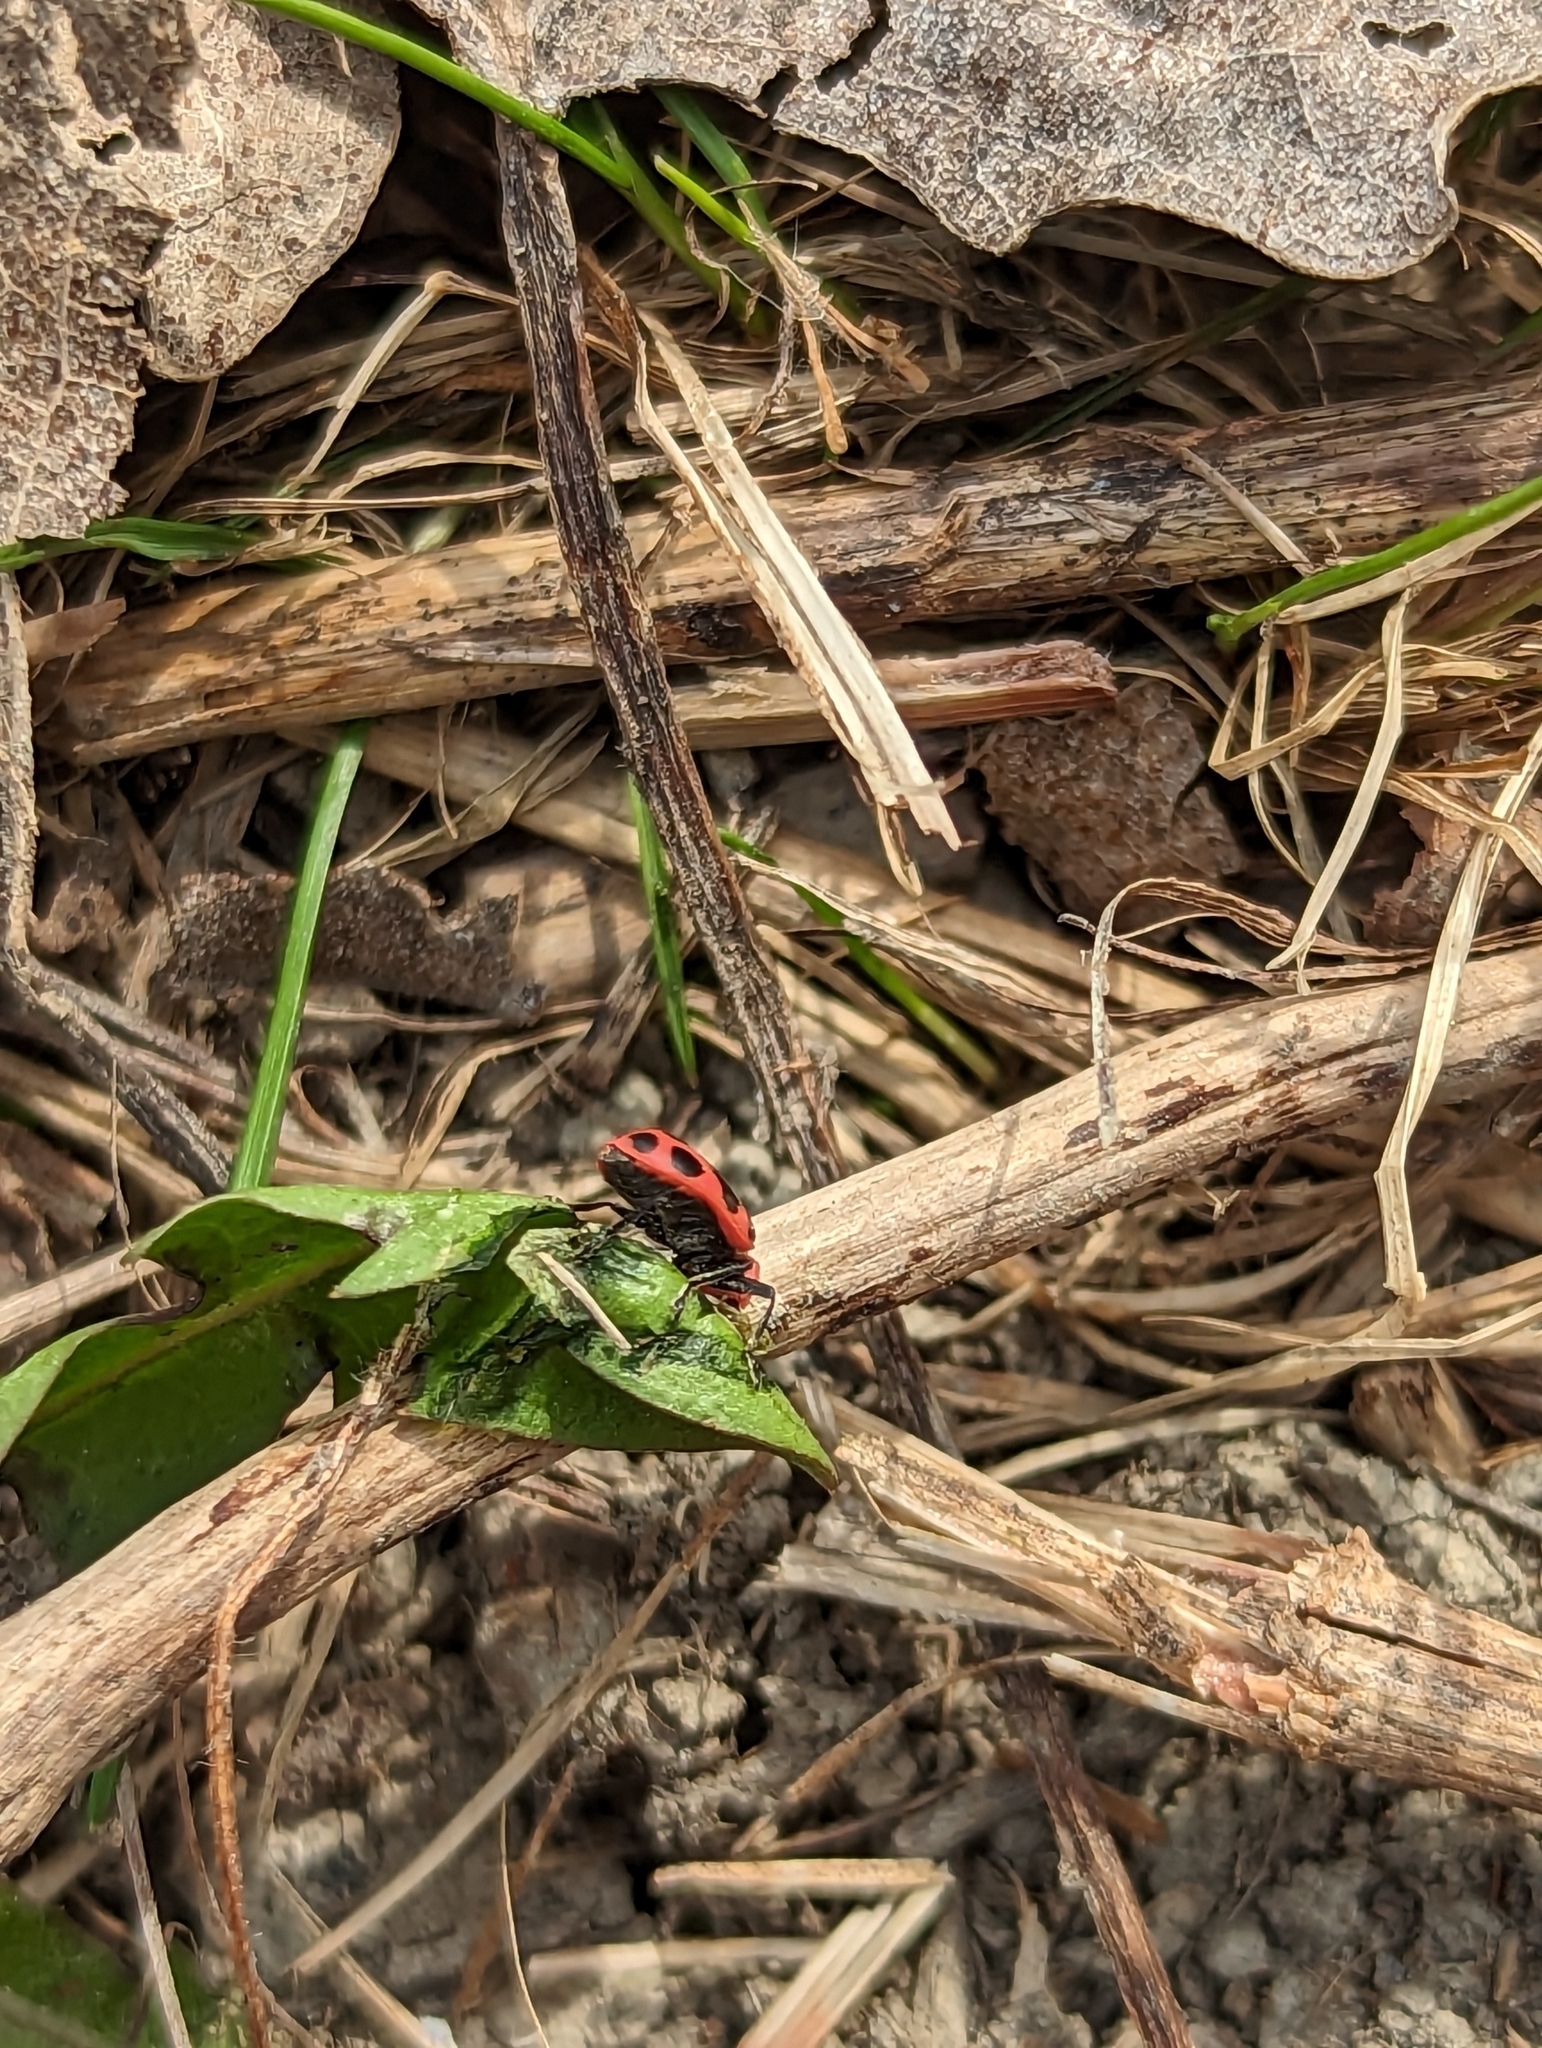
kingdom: Animalia
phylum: Arthropoda
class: Insecta
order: Coleoptera
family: Coccinellidae
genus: Coleomegilla
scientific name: Coleomegilla maculata
